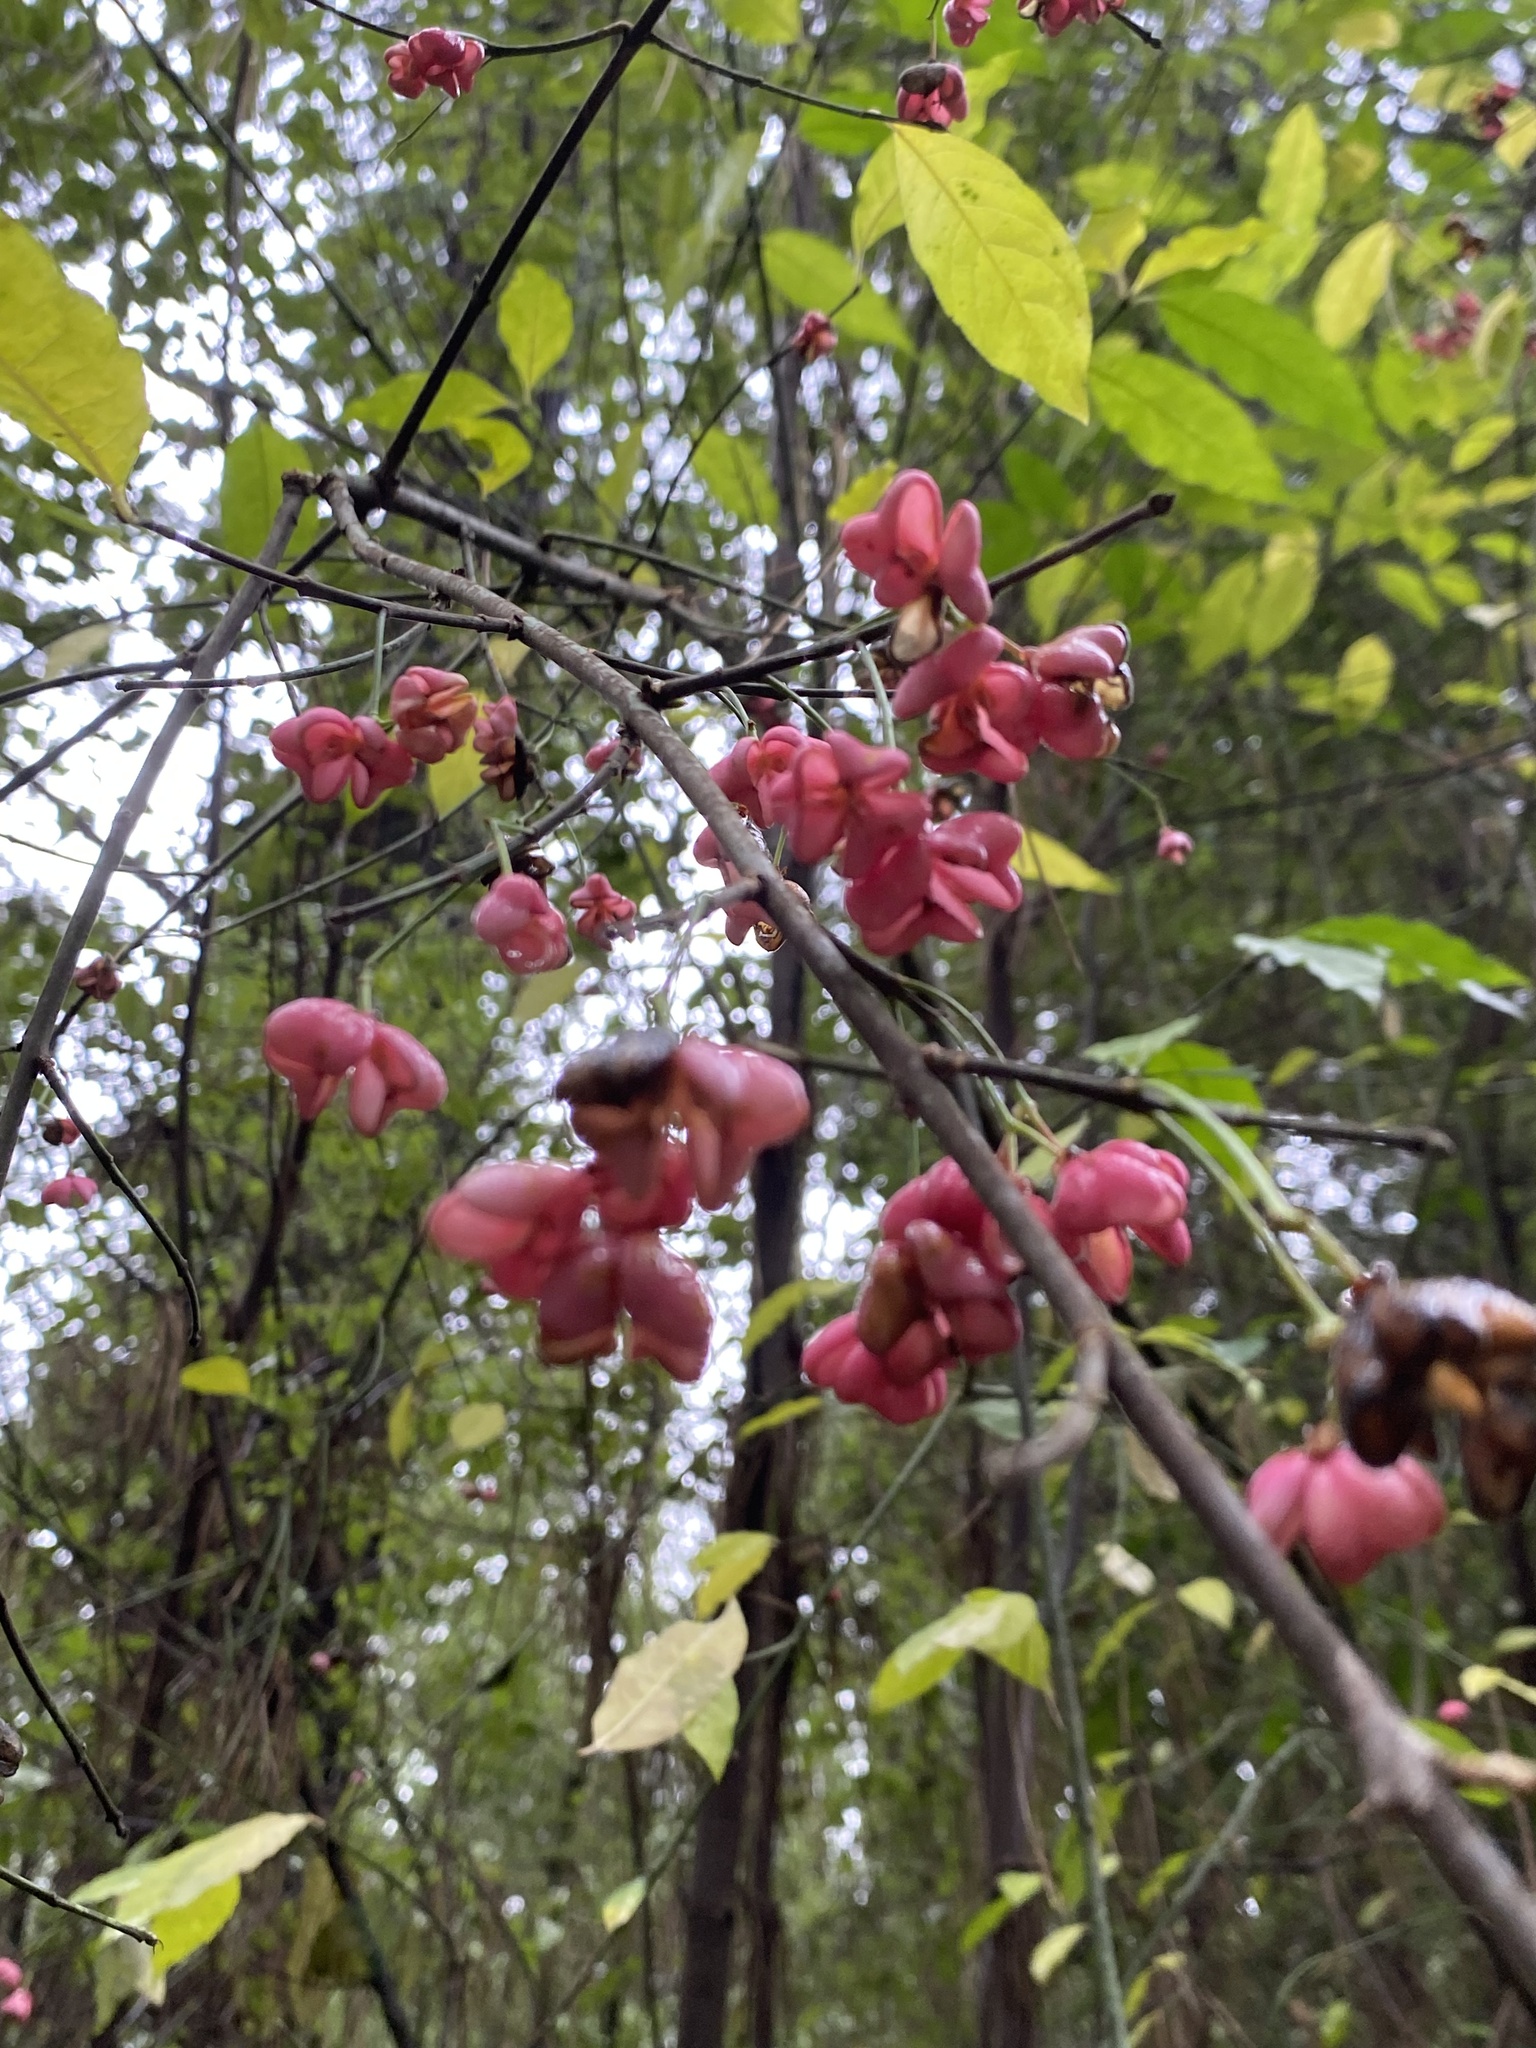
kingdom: Plantae
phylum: Tracheophyta
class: Magnoliopsida
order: Celastrales
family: Celastraceae
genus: Euonymus
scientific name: Euonymus europaeus
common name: Spindle
